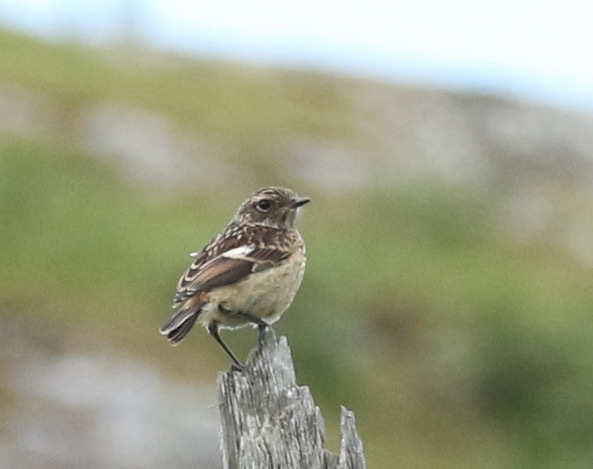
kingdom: Animalia
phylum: Chordata
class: Aves
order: Passeriformes
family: Muscicapidae
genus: Saxicola
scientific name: Saxicola rubicola
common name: European stonechat
